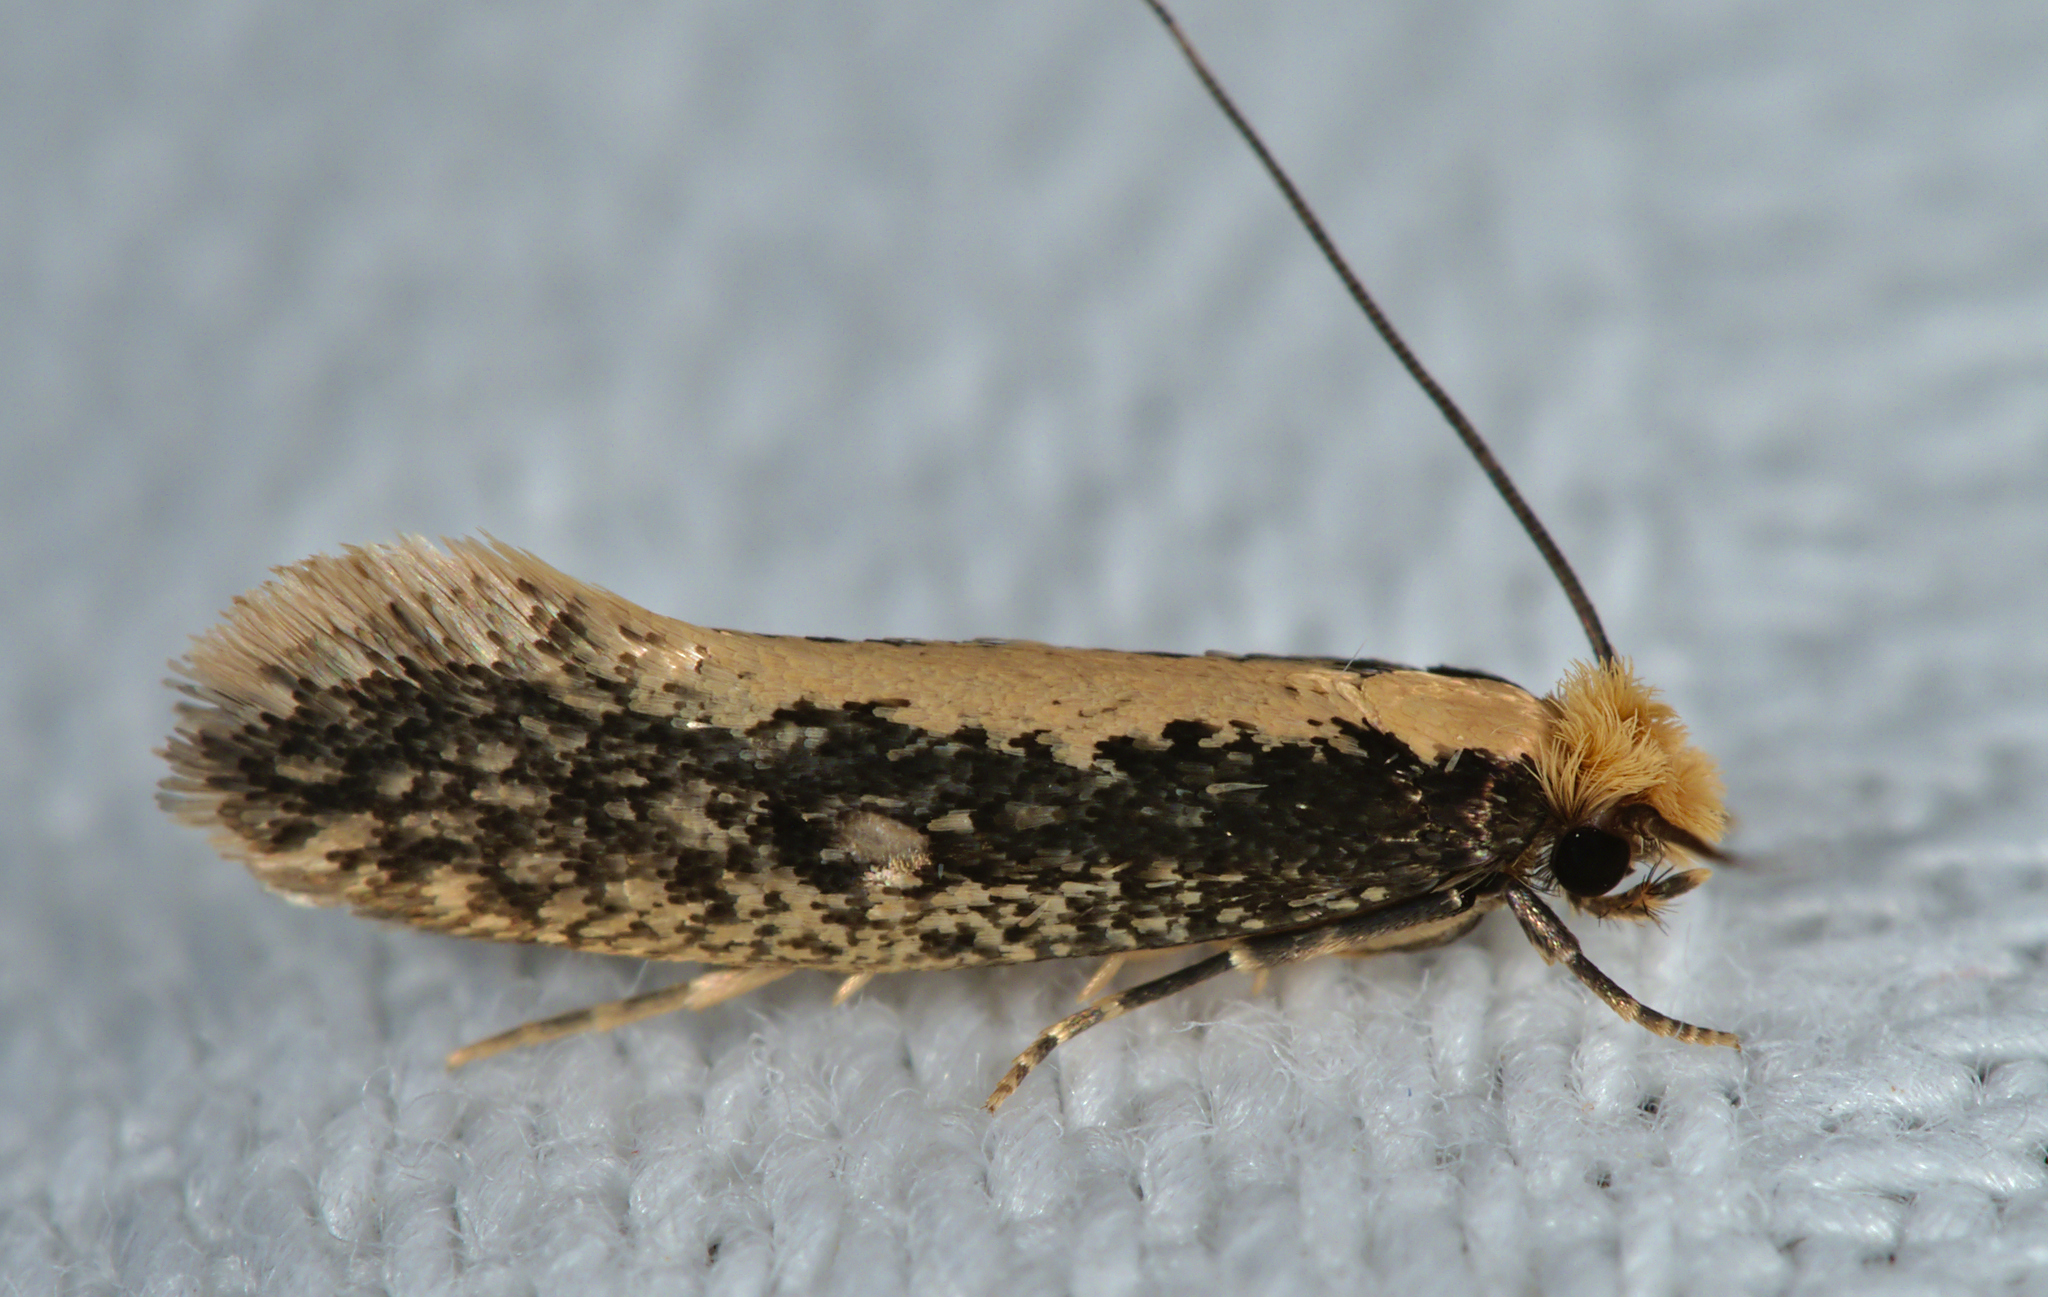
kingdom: Animalia
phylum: Arthropoda
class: Insecta
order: Lepidoptera
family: Tineidae
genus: Monopis
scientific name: Monopis crocicapitella
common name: Moth
